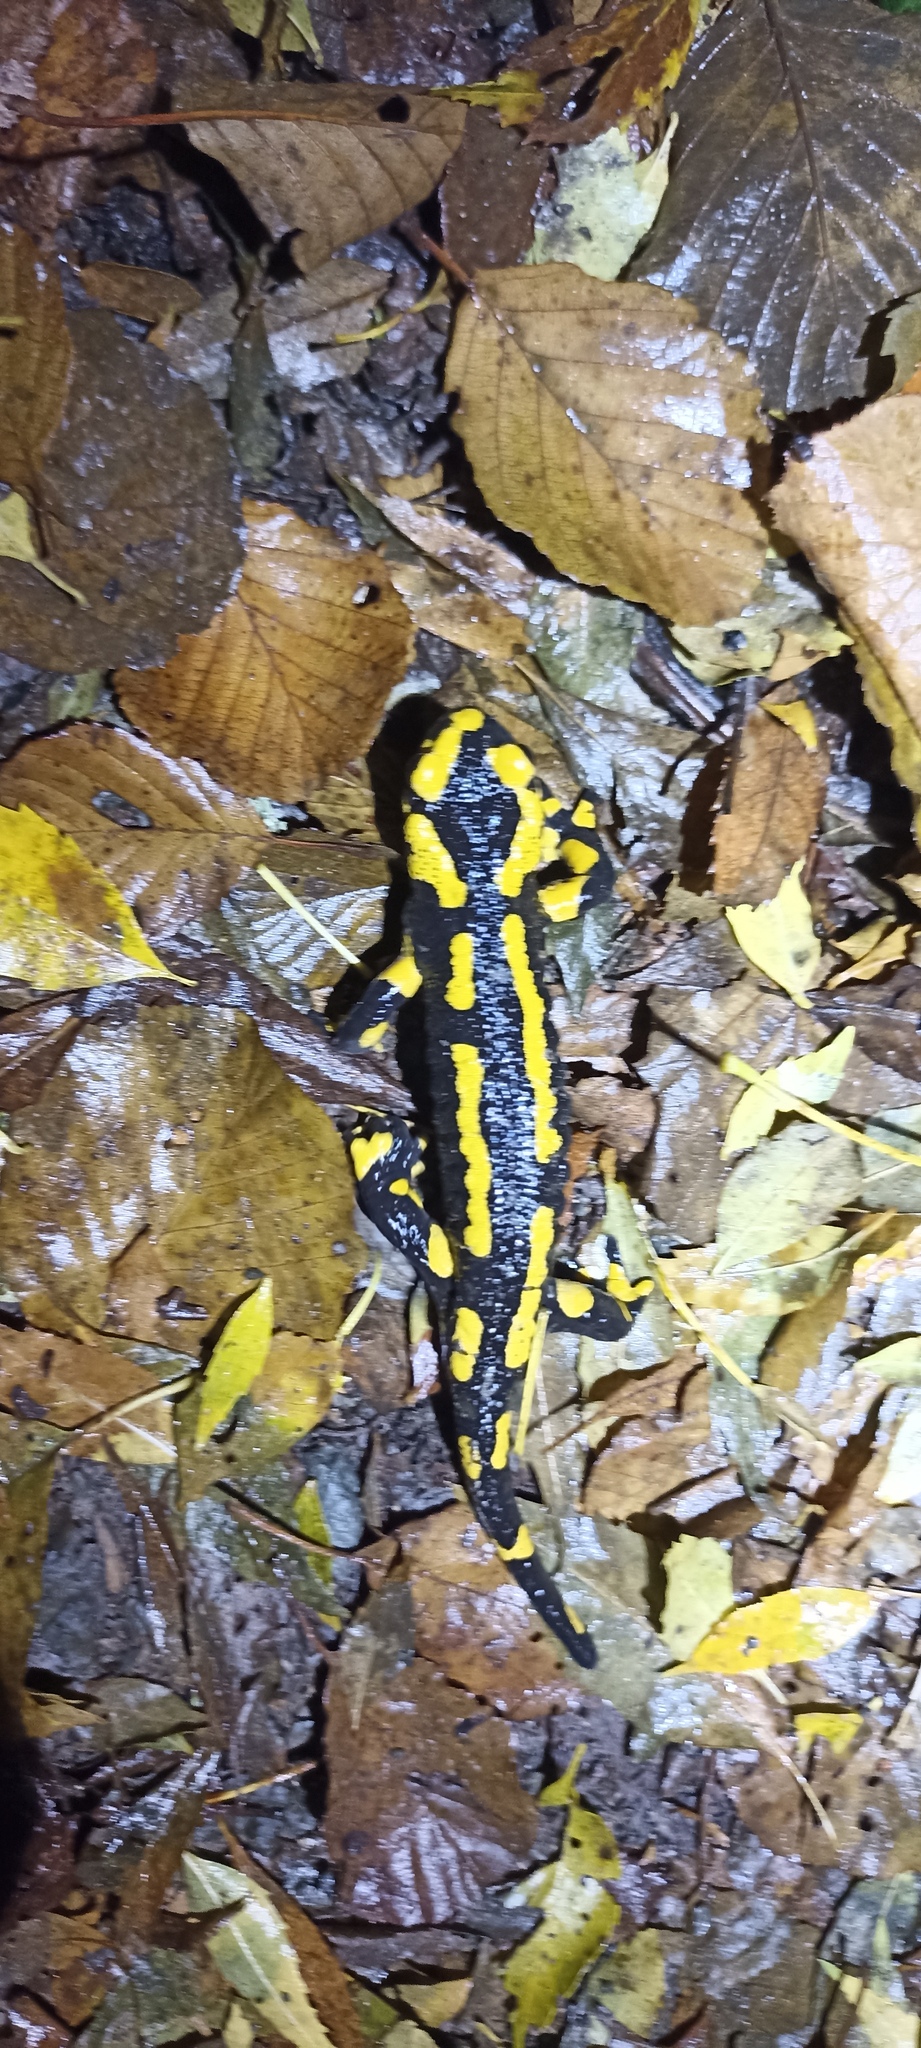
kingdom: Animalia
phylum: Chordata
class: Amphibia
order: Caudata
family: Salamandridae
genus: Salamandra
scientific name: Salamandra salamandra
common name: Fire salamander
